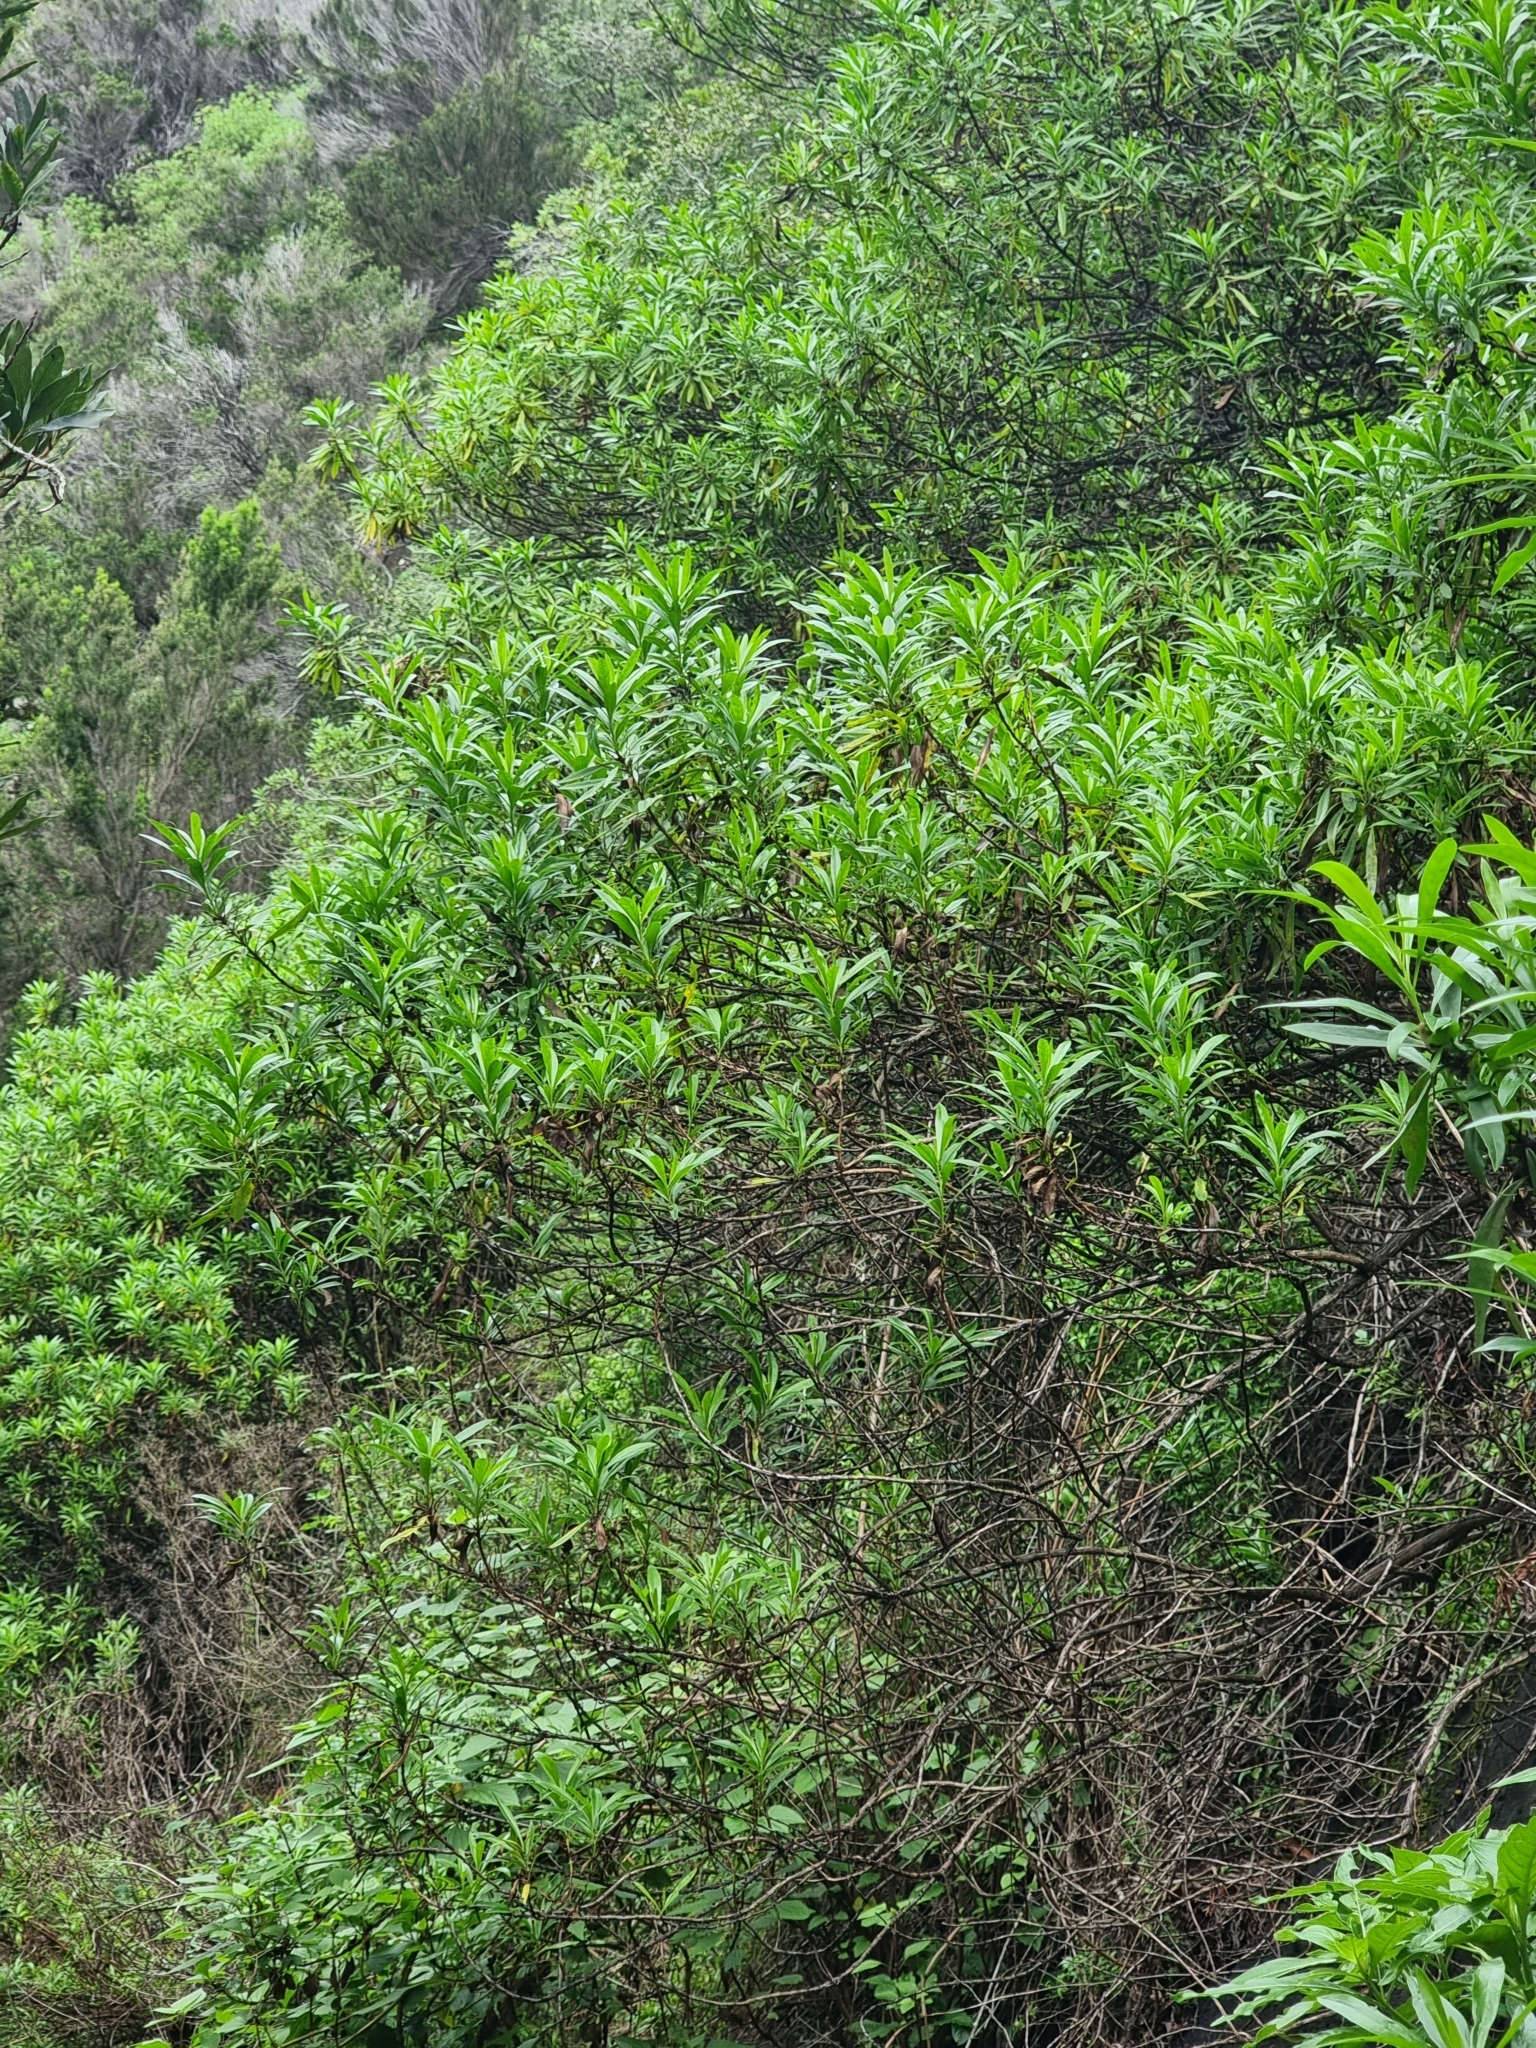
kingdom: Plantae
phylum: Tracheophyta
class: Magnoliopsida
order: Lamiales
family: Plantaginaceae
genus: Globularia
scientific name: Globularia salicina
